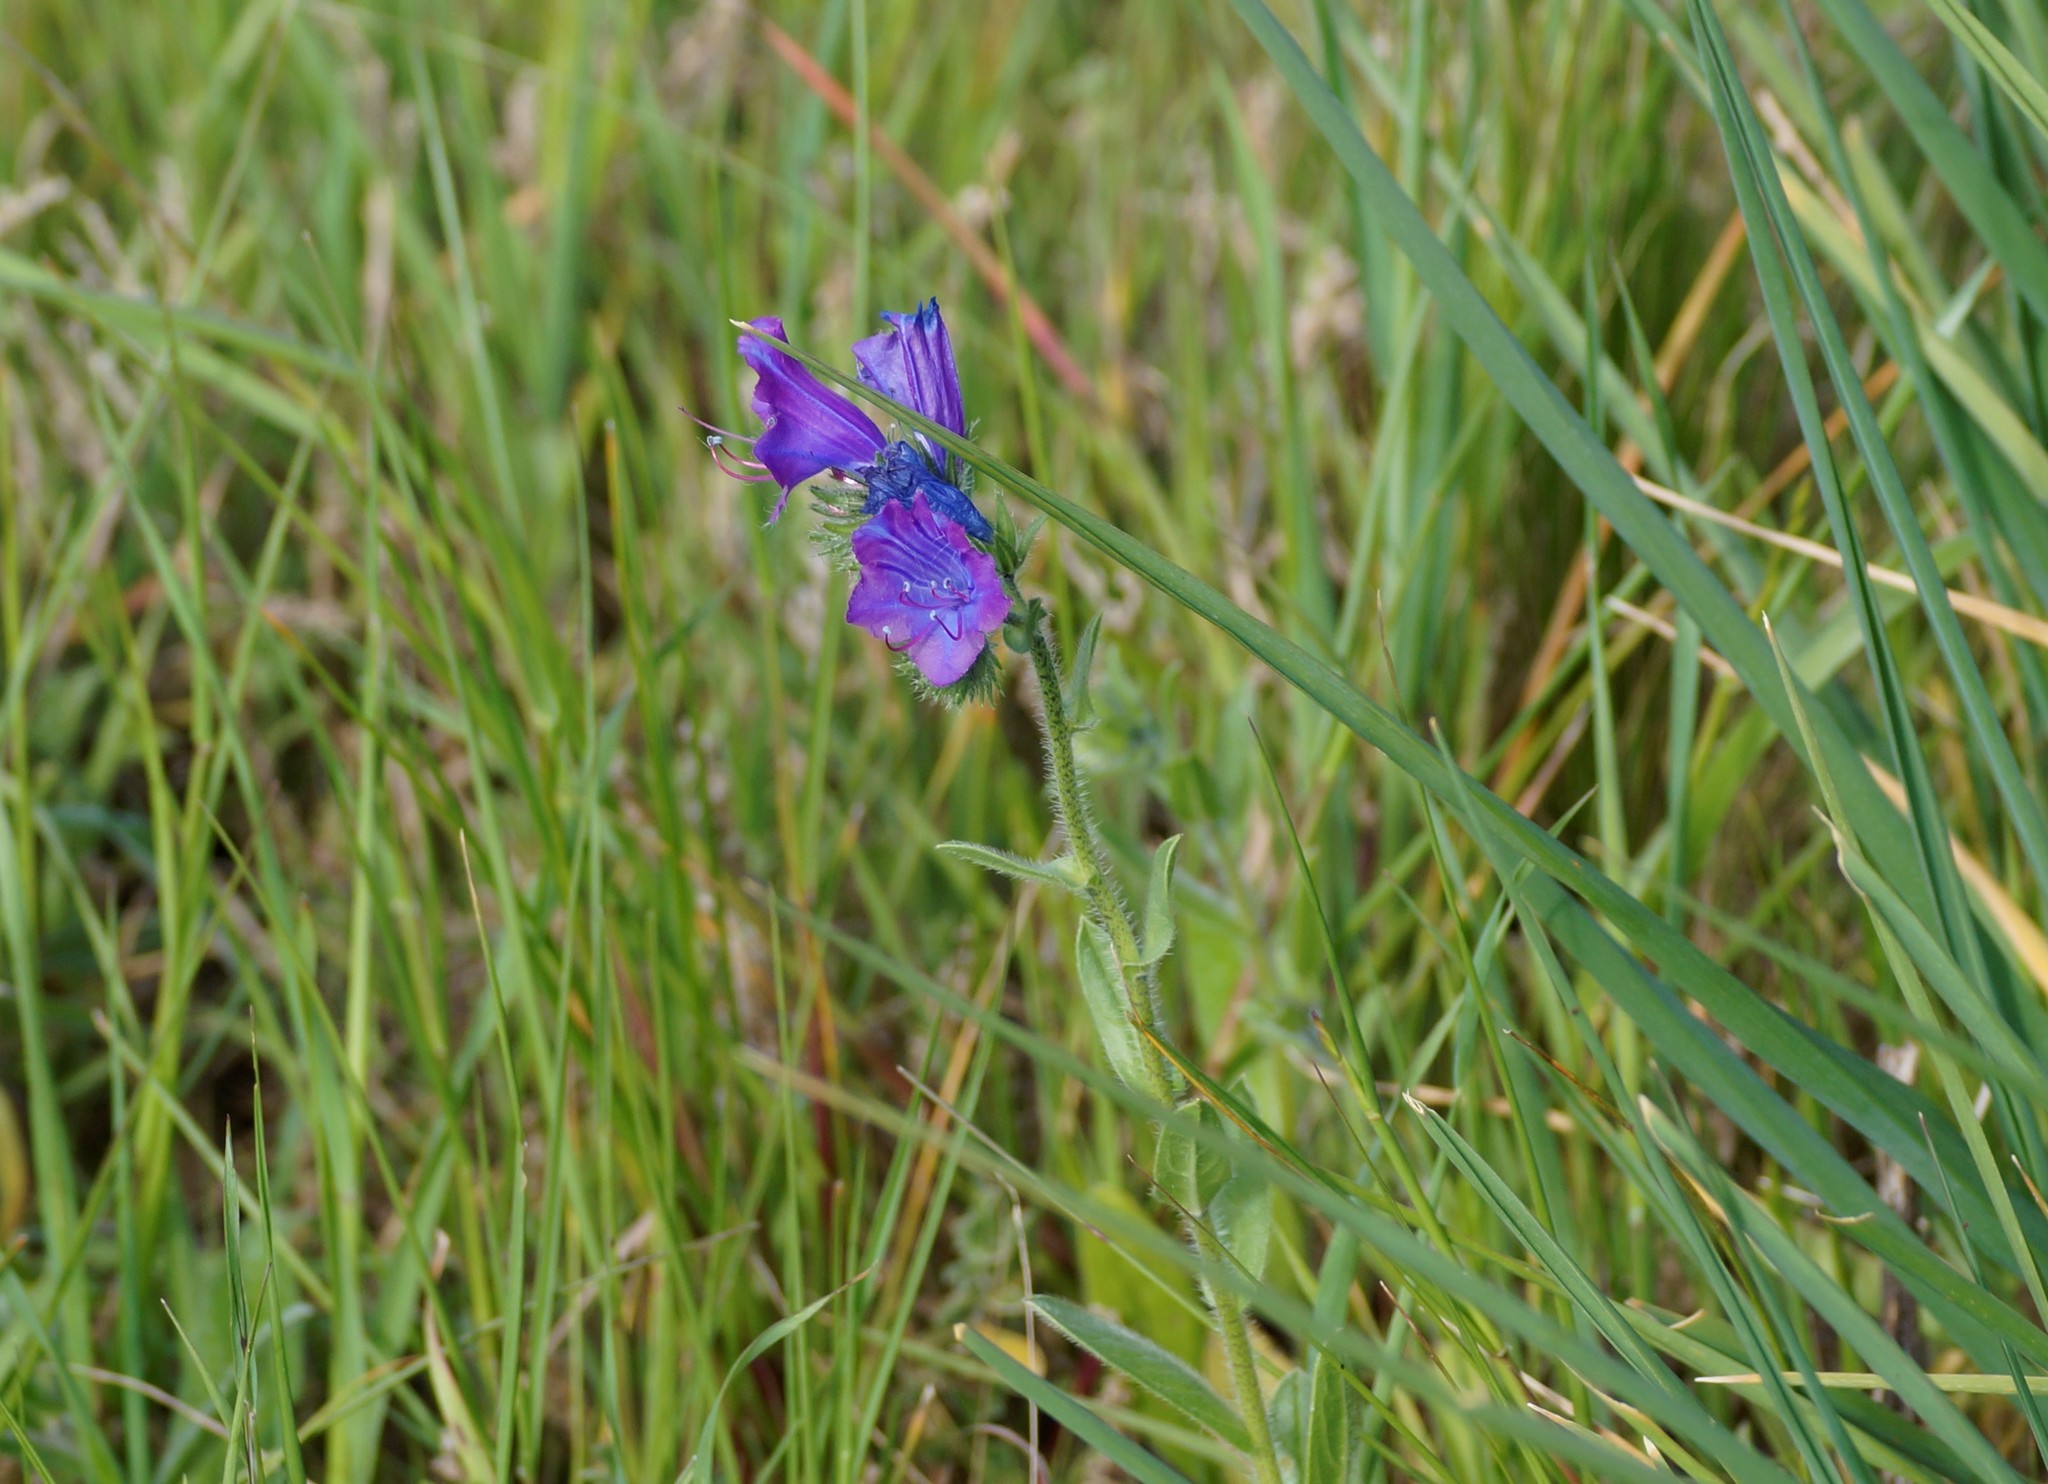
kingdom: Plantae
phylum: Tracheophyta
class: Magnoliopsida
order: Boraginales
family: Boraginaceae
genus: Echium
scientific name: Echium plantagineum
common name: Purple viper's-bugloss
